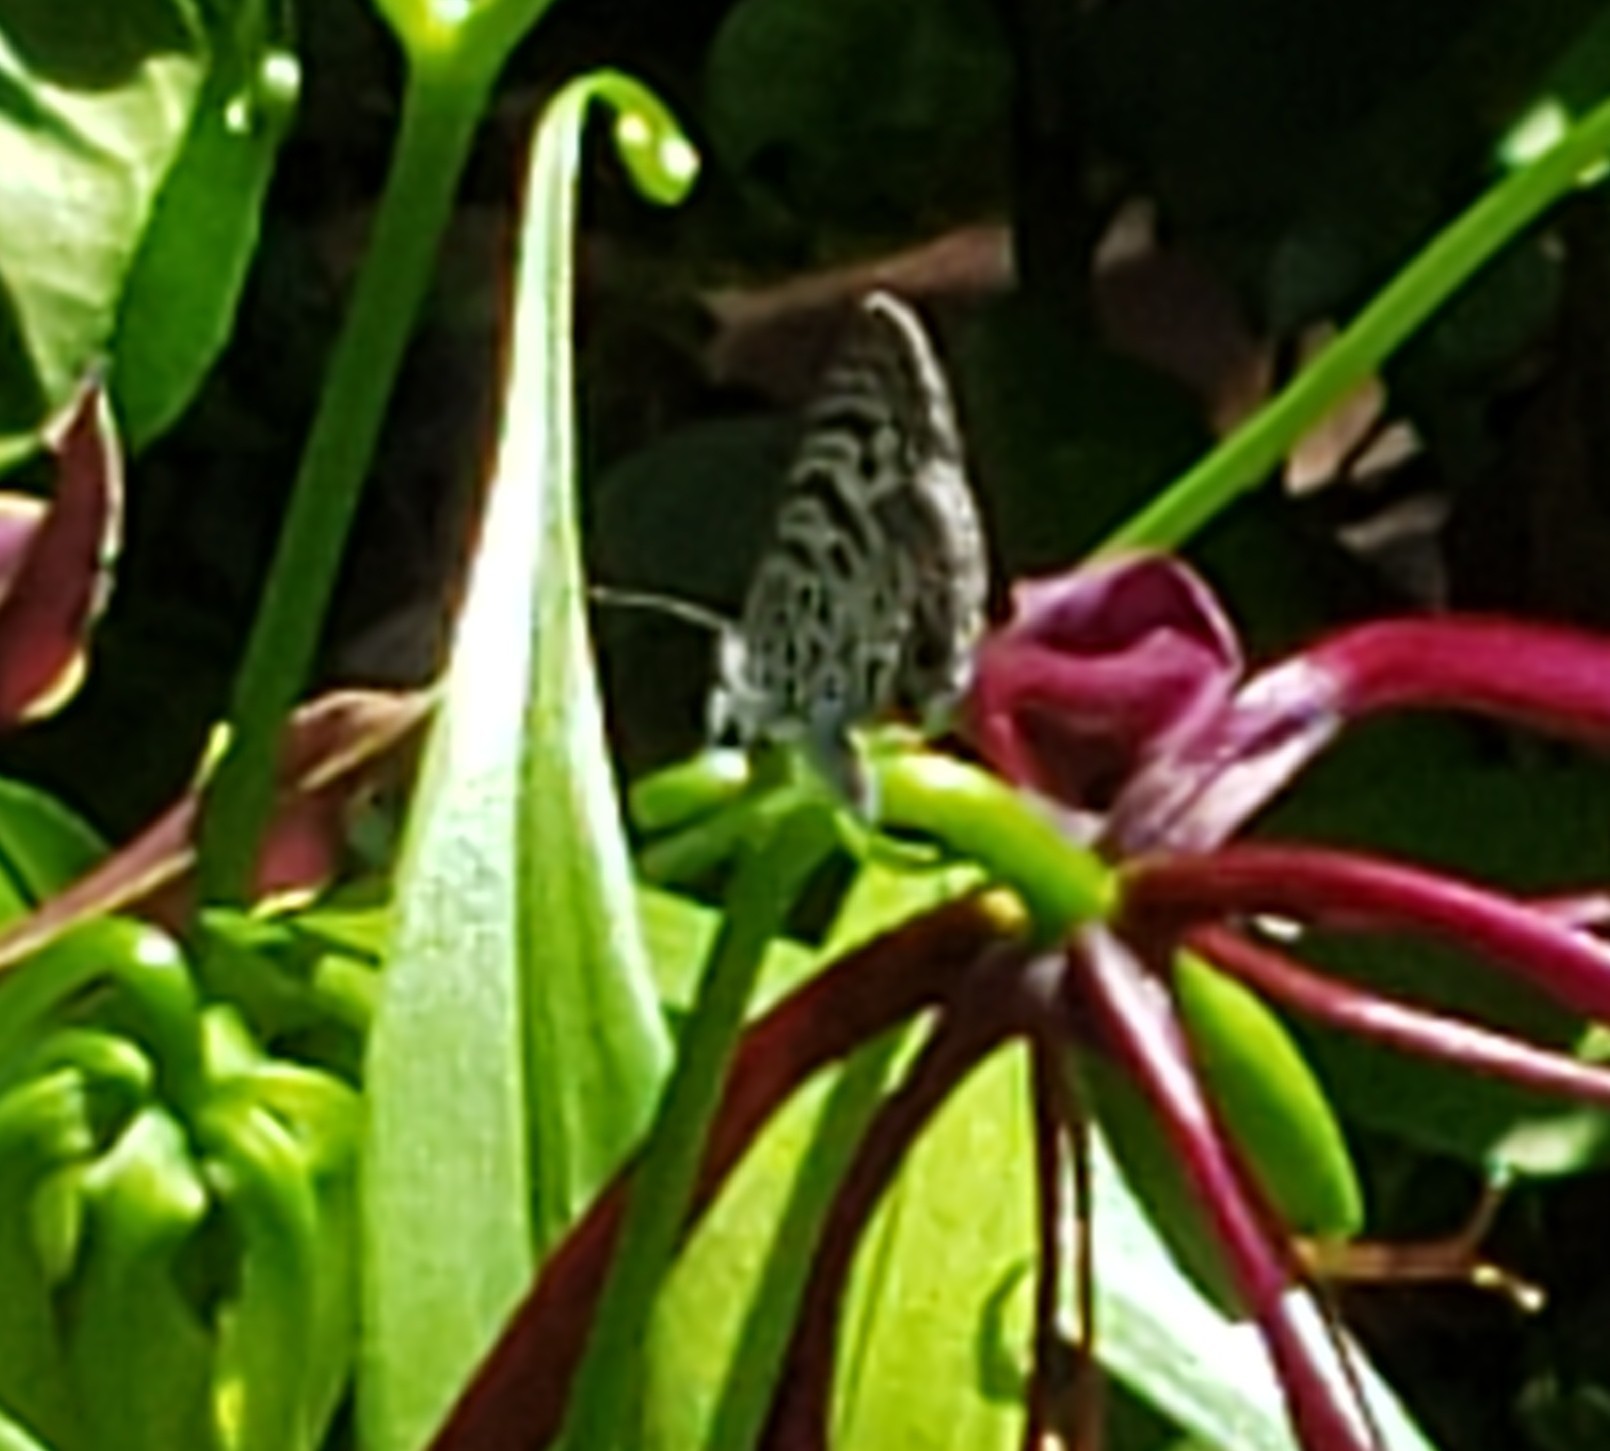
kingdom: Animalia
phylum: Arthropoda
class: Insecta
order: Lepidoptera
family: Lycaenidae
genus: Leptotes
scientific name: Leptotes cassius
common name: Cassius blue
